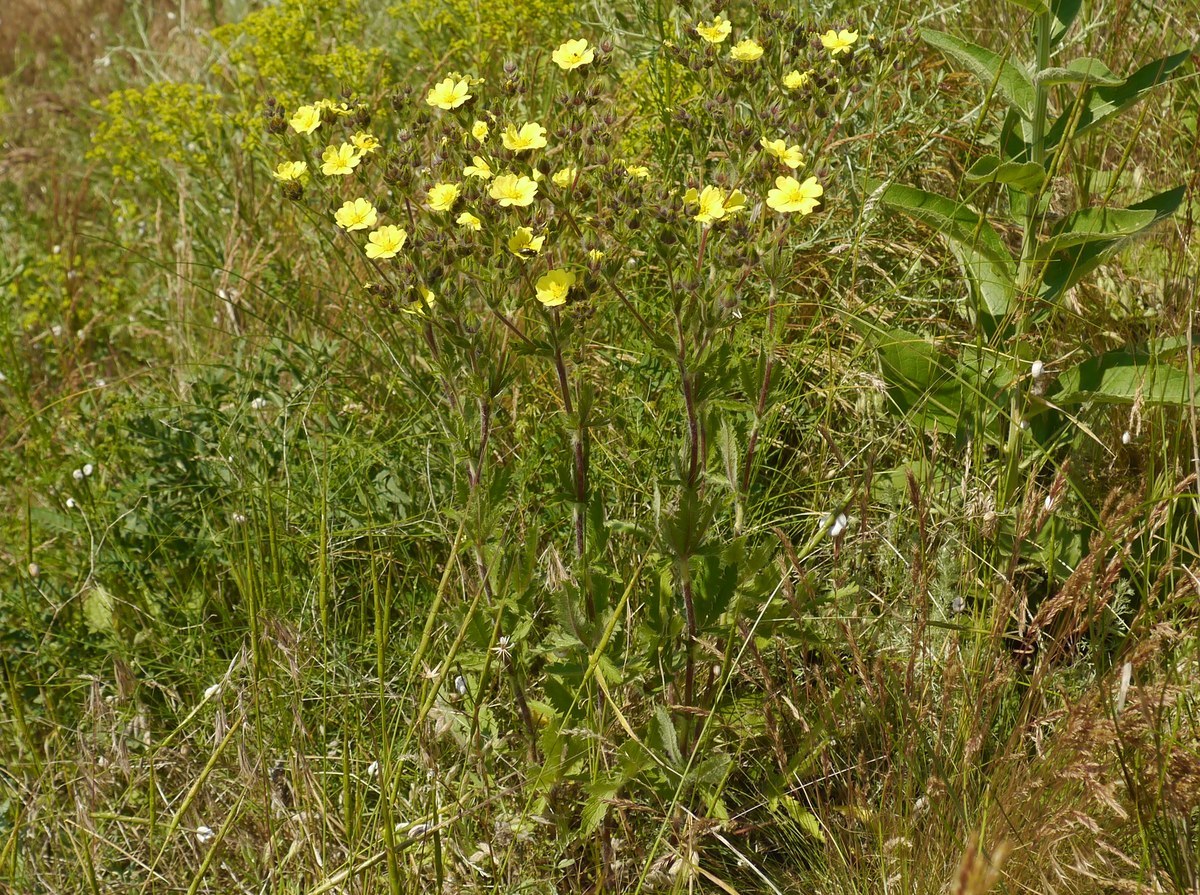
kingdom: Plantae
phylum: Tracheophyta
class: Magnoliopsida
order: Rosales
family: Rosaceae
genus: Potentilla
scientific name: Potentilla recta
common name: Sulphur cinquefoil
